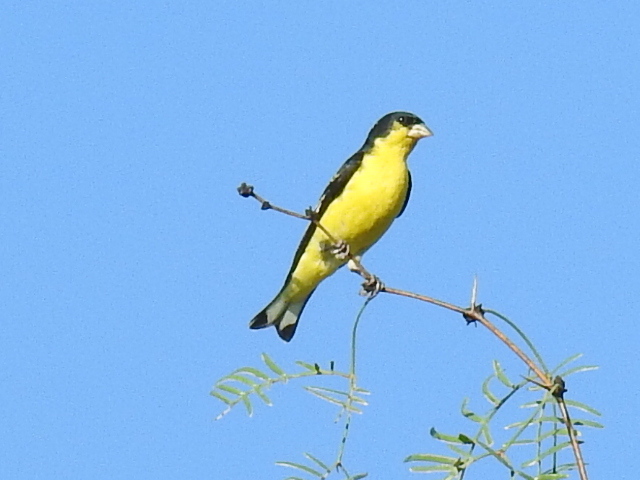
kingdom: Animalia
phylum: Chordata
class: Aves
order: Passeriformes
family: Fringillidae
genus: Spinus
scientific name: Spinus psaltria
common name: Lesser goldfinch
